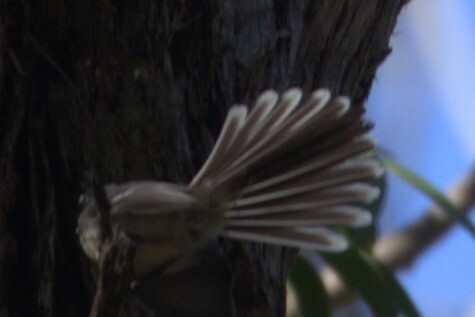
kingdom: Animalia
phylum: Chordata
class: Aves
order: Passeriformes
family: Rhipiduridae
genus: Rhipidura
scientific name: Rhipidura albiscapa
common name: Grey fantail
